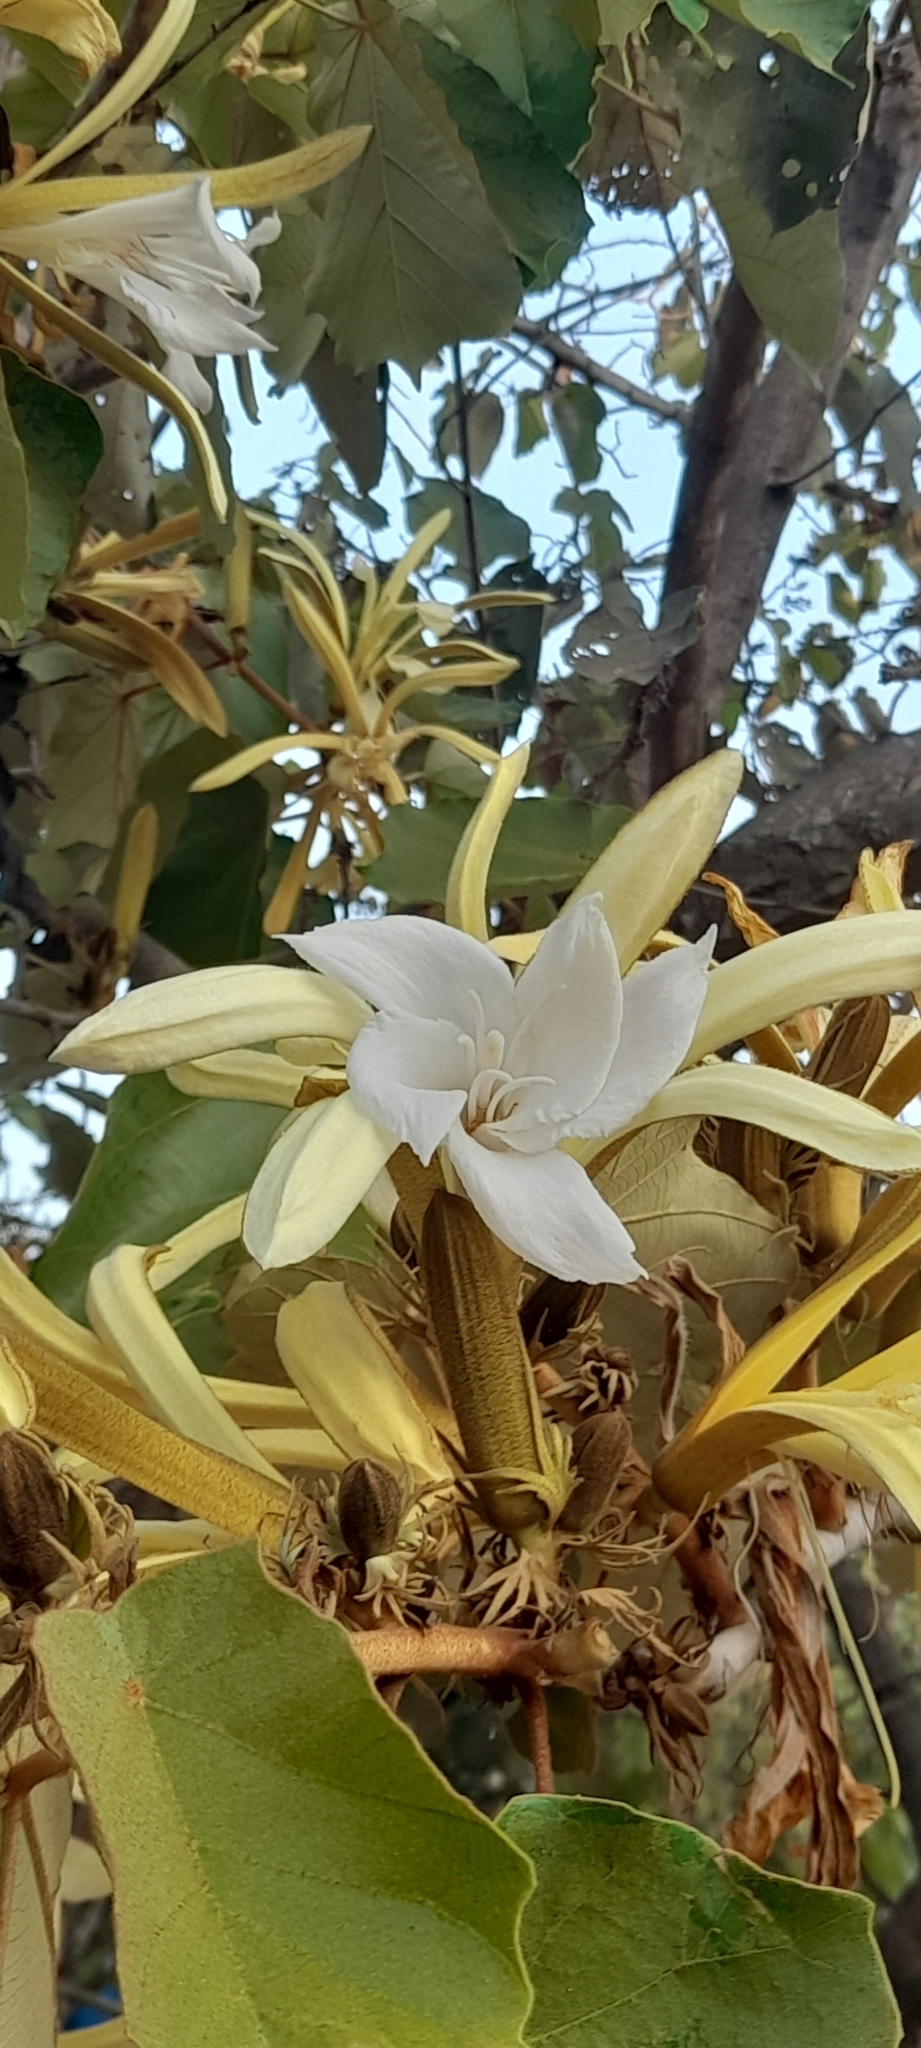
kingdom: Plantae
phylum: Tracheophyta
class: Magnoliopsida
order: Malvales
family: Malvaceae
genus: Pterospermum
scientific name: Pterospermum acerifolium
